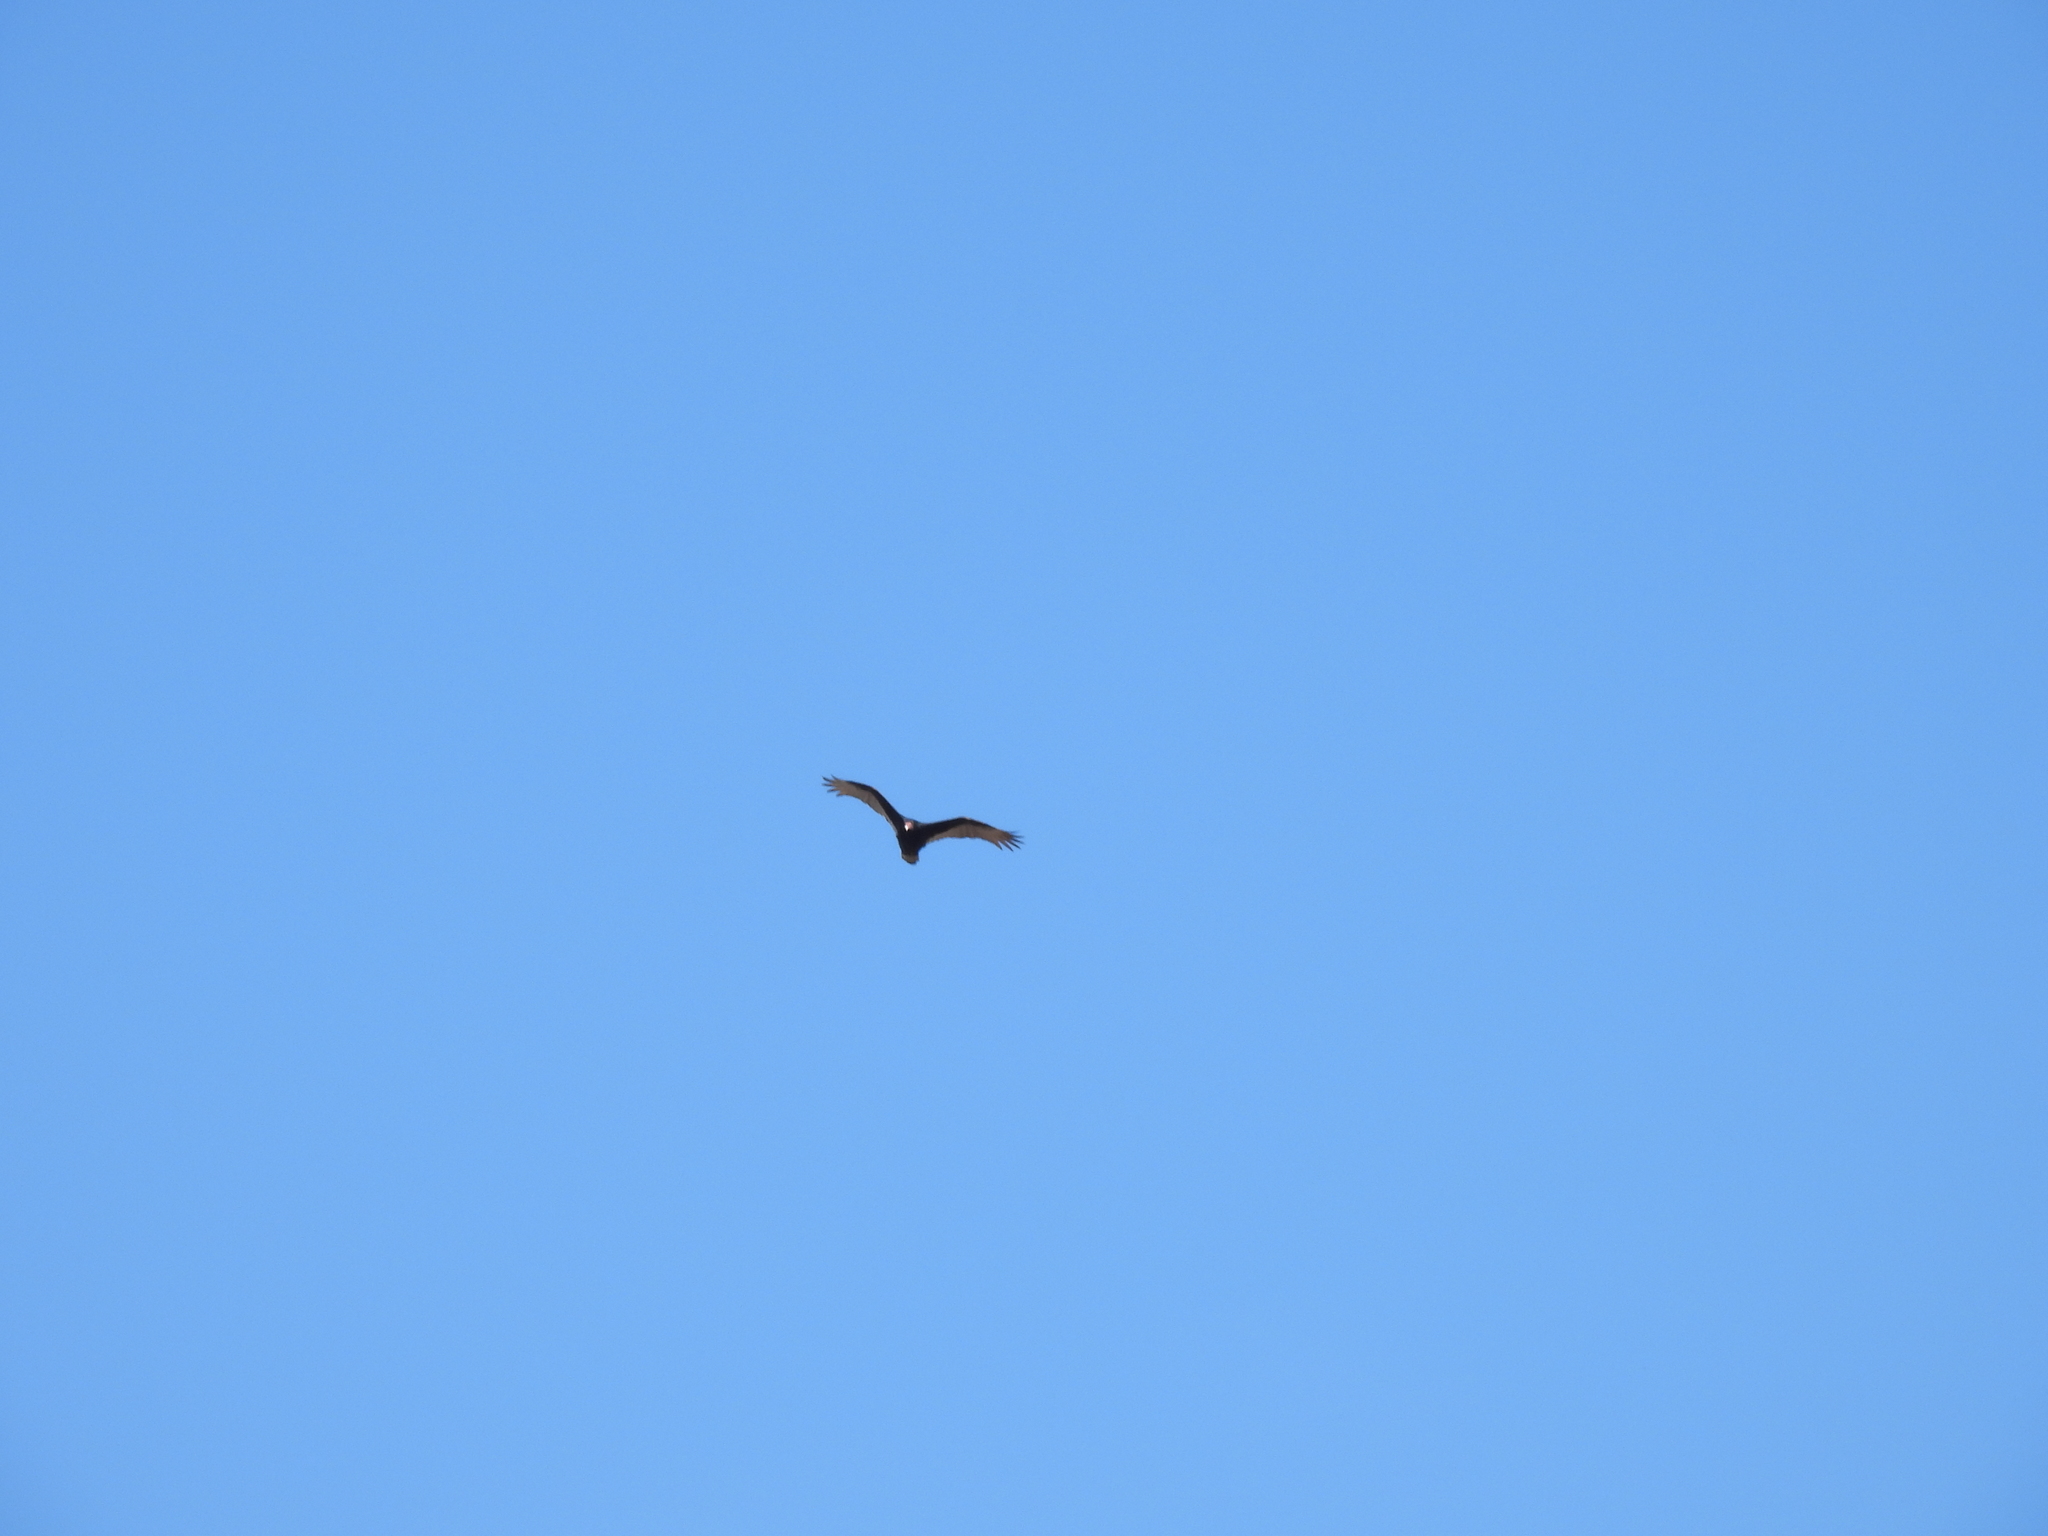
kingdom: Animalia
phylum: Chordata
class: Aves
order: Accipitriformes
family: Cathartidae
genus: Cathartes
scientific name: Cathartes aura
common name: Turkey vulture
